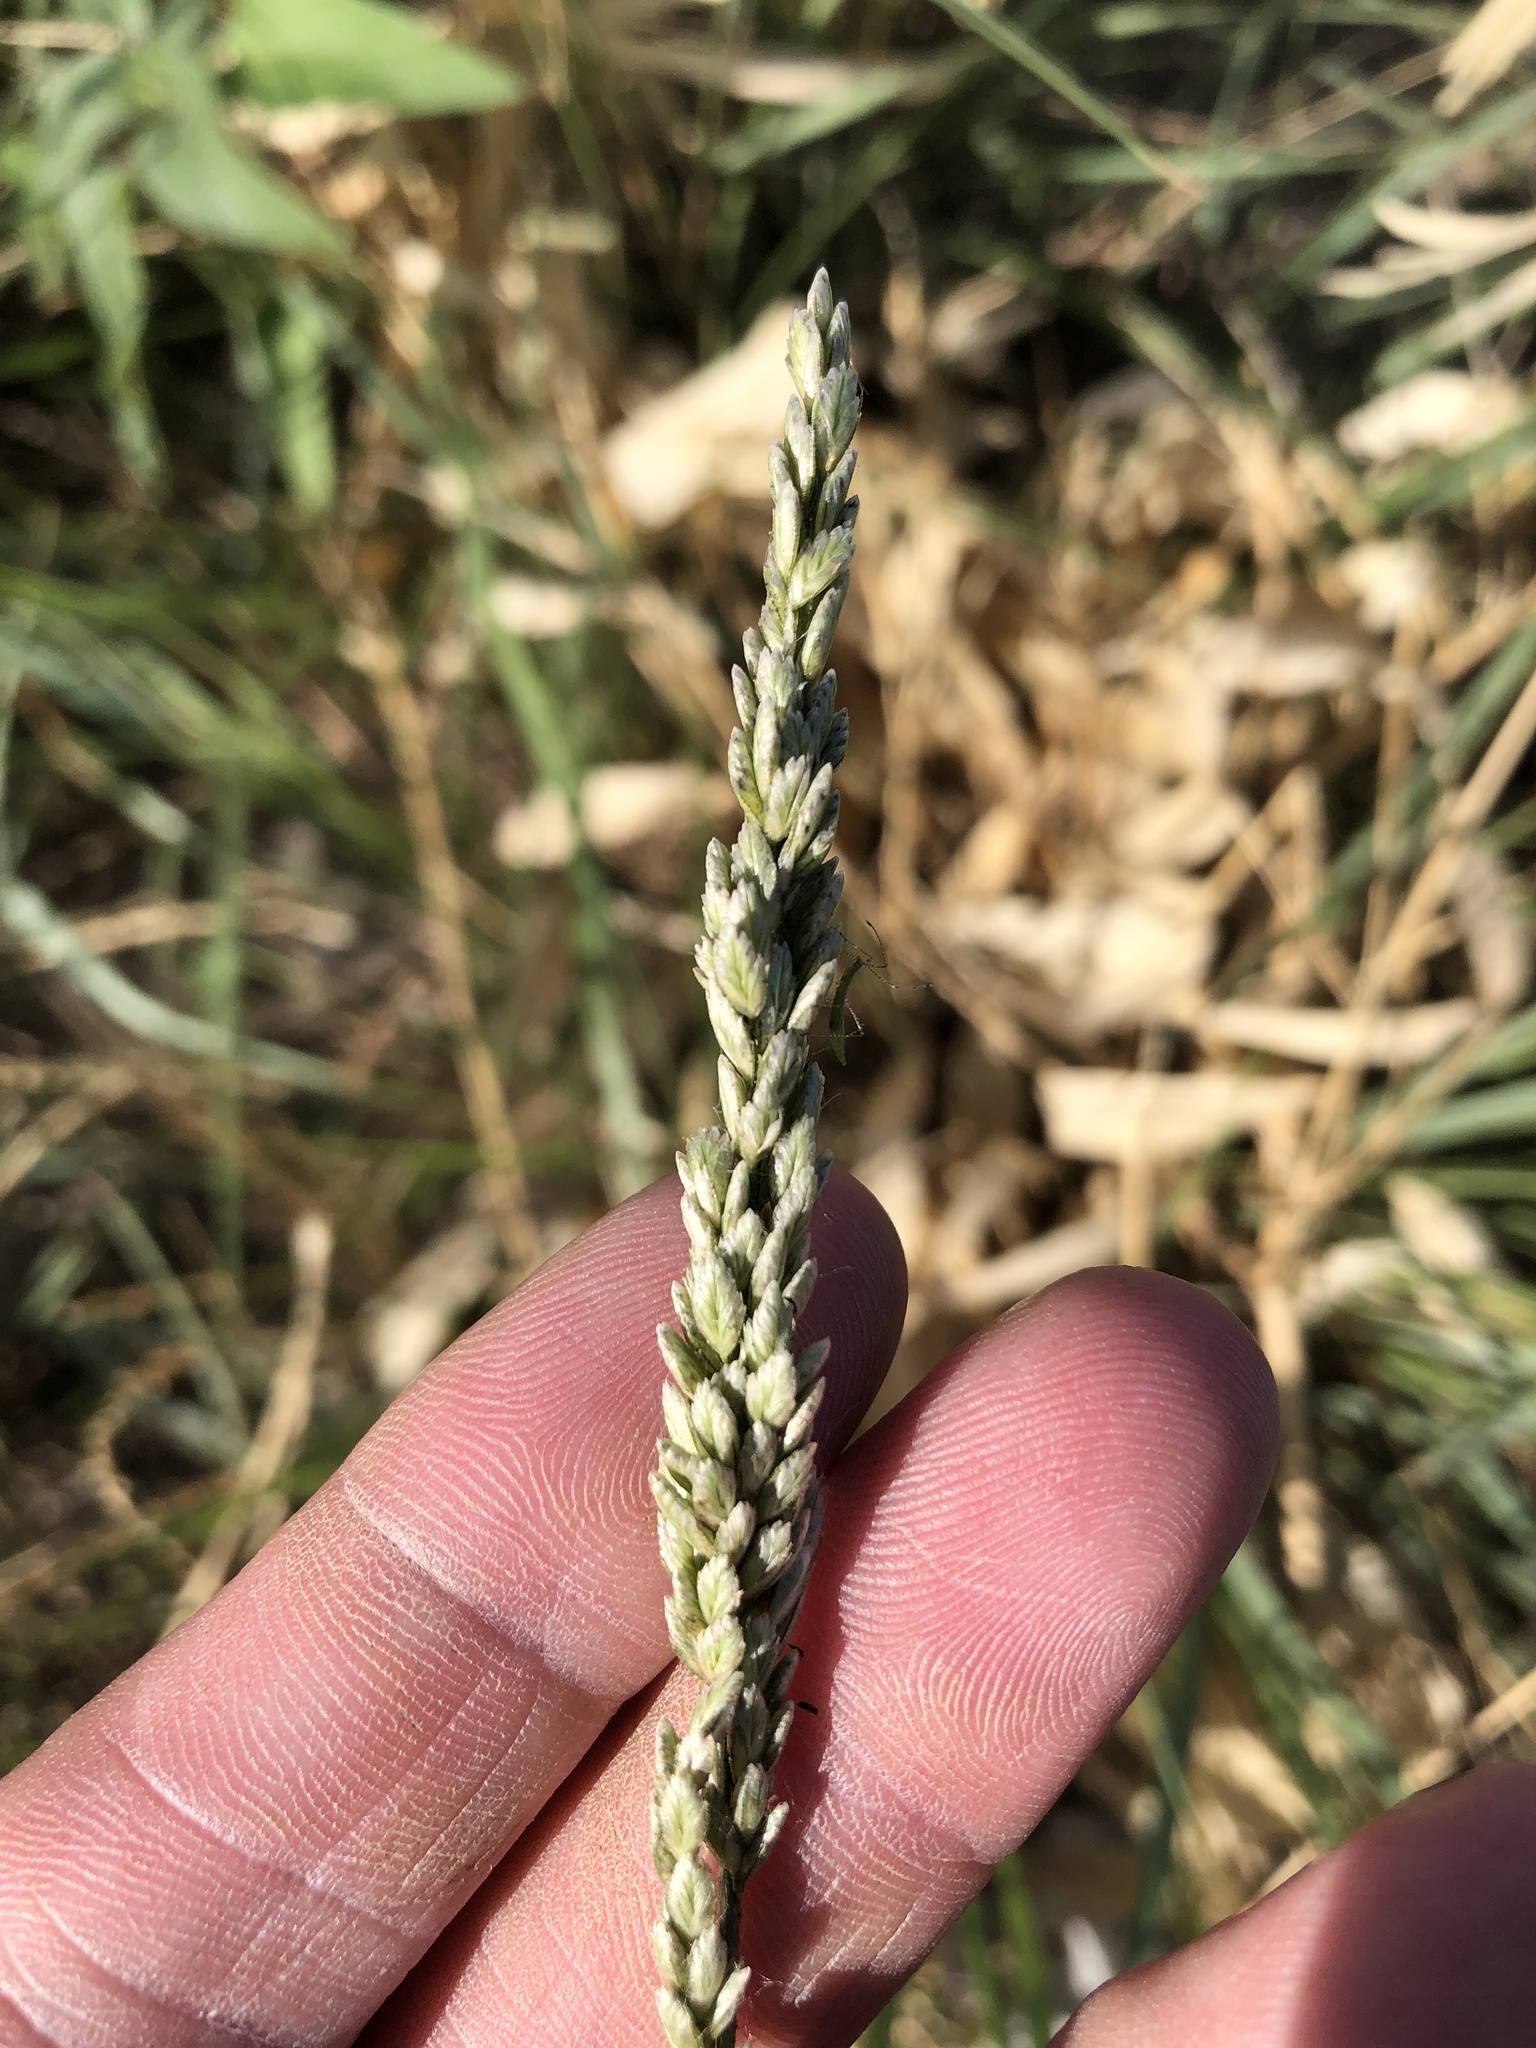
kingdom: Plantae
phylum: Tracheophyta
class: Liliopsida
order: Poales
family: Poaceae
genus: Tridens
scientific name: Tridens albescens
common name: White tridens
